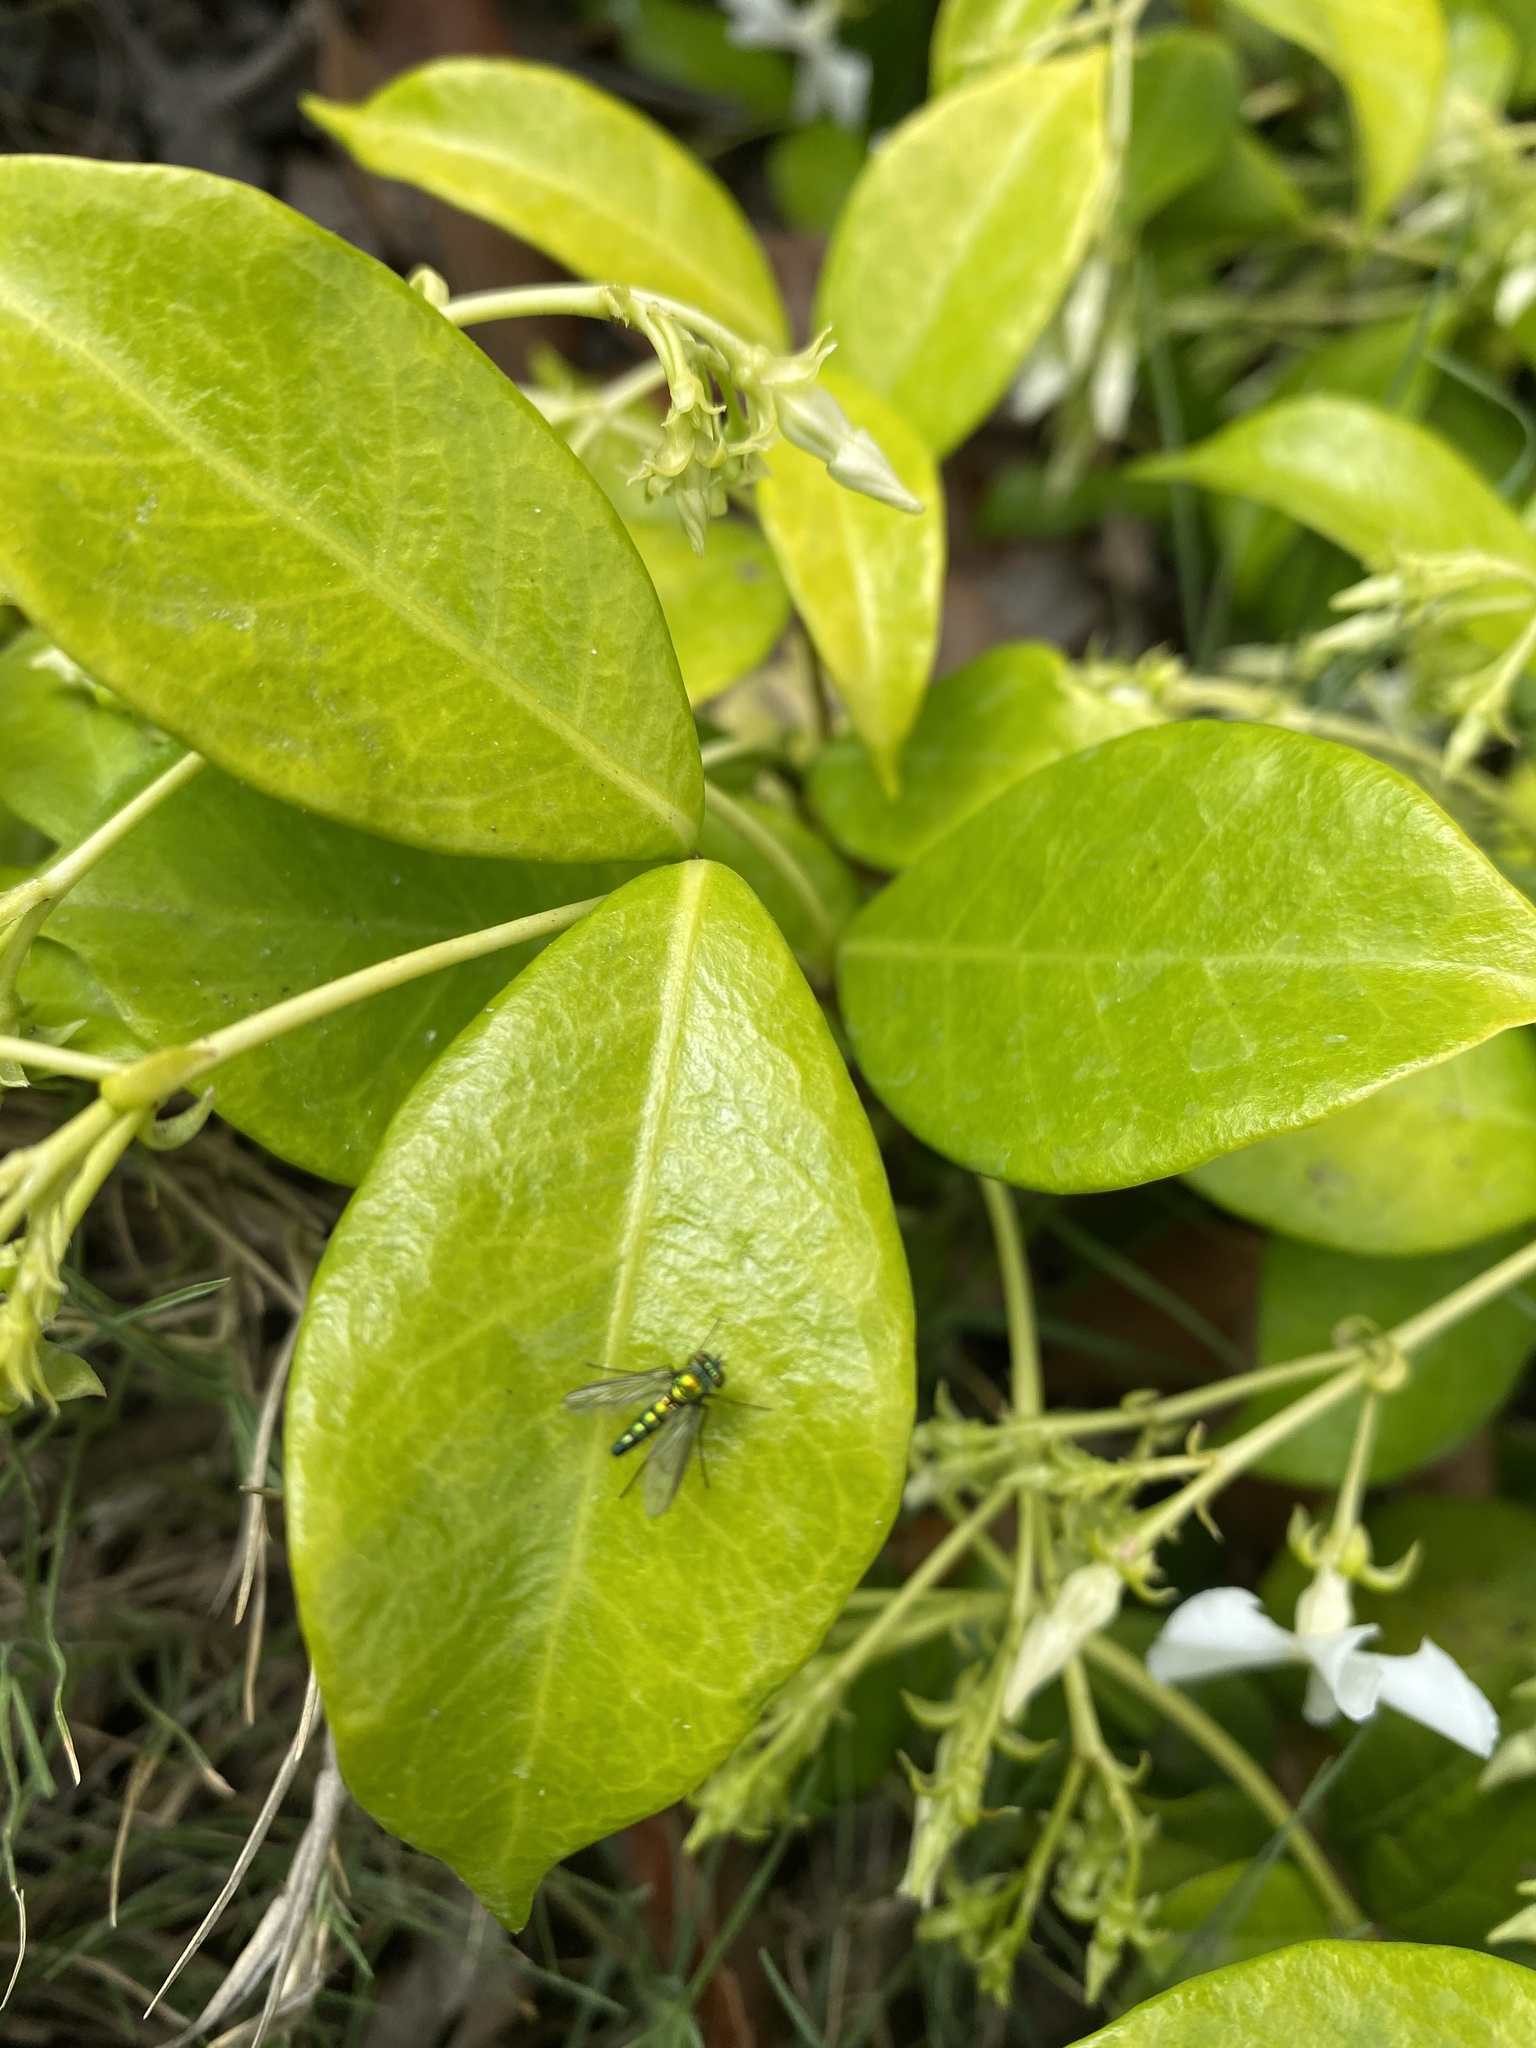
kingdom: Animalia
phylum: Arthropoda
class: Insecta
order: Diptera
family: Dolichopodidae
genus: Condylostylus
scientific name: Condylostylus longicornis
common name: Long-legged fly
